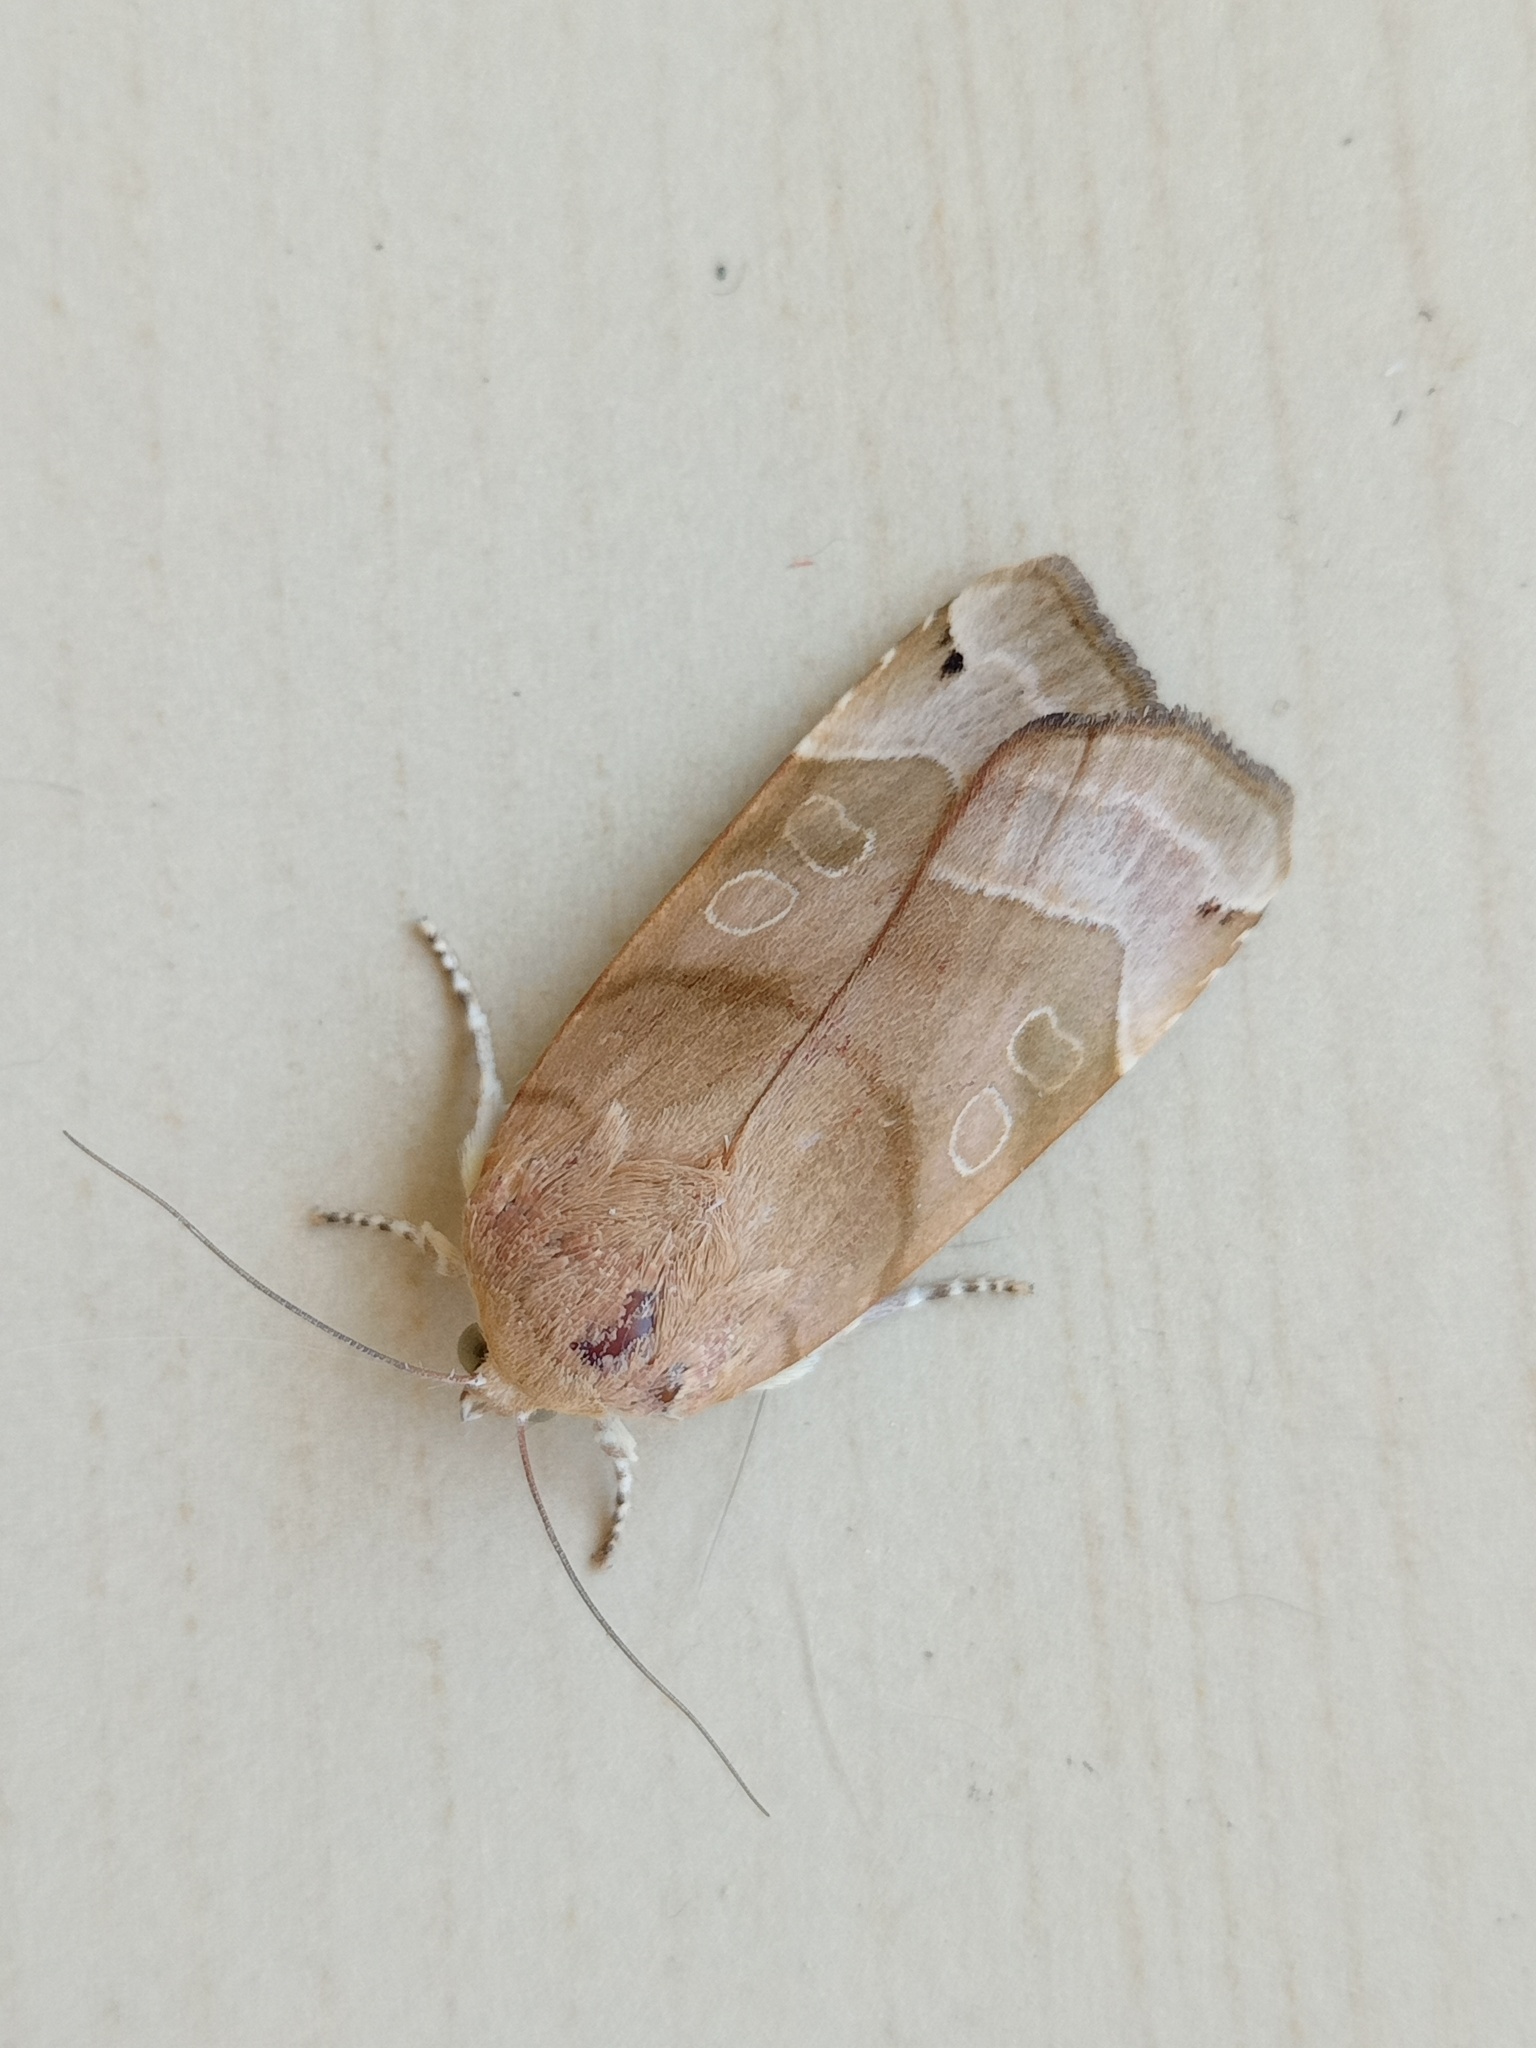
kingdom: Animalia
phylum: Arthropoda
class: Insecta
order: Lepidoptera
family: Noctuidae
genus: Noctua
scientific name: Noctua fimbriata
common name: Broad-bordered yellow underwing
